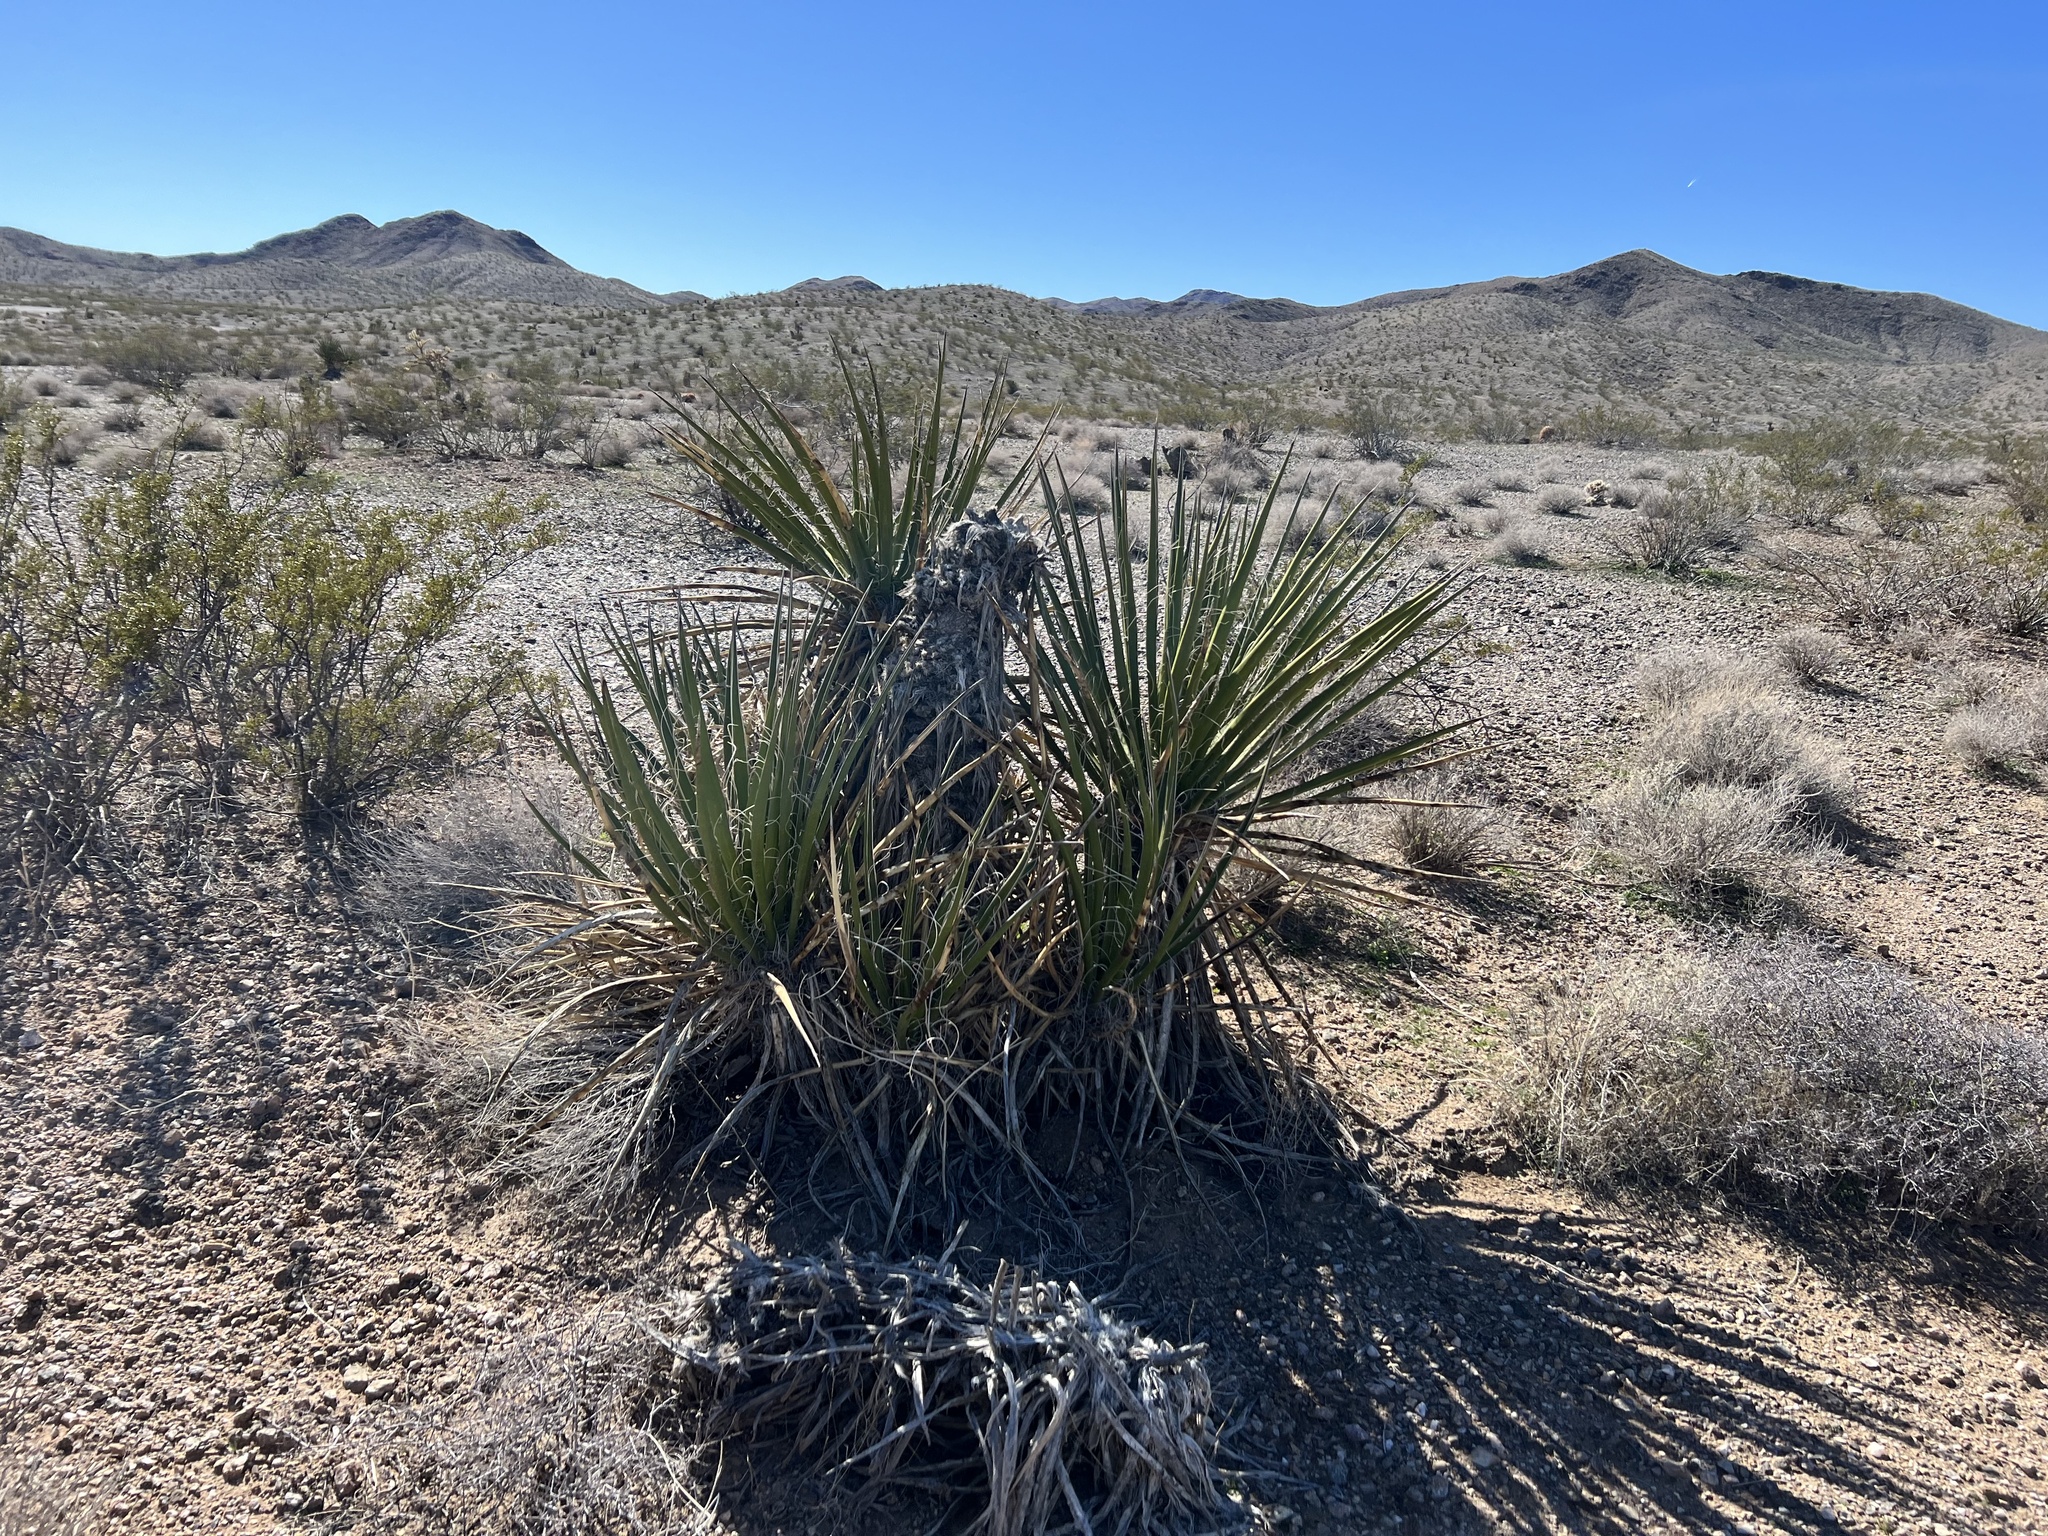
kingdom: Plantae
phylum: Tracheophyta
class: Liliopsida
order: Asparagales
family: Asparagaceae
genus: Yucca
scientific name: Yucca schidigera
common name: Mojave yucca
